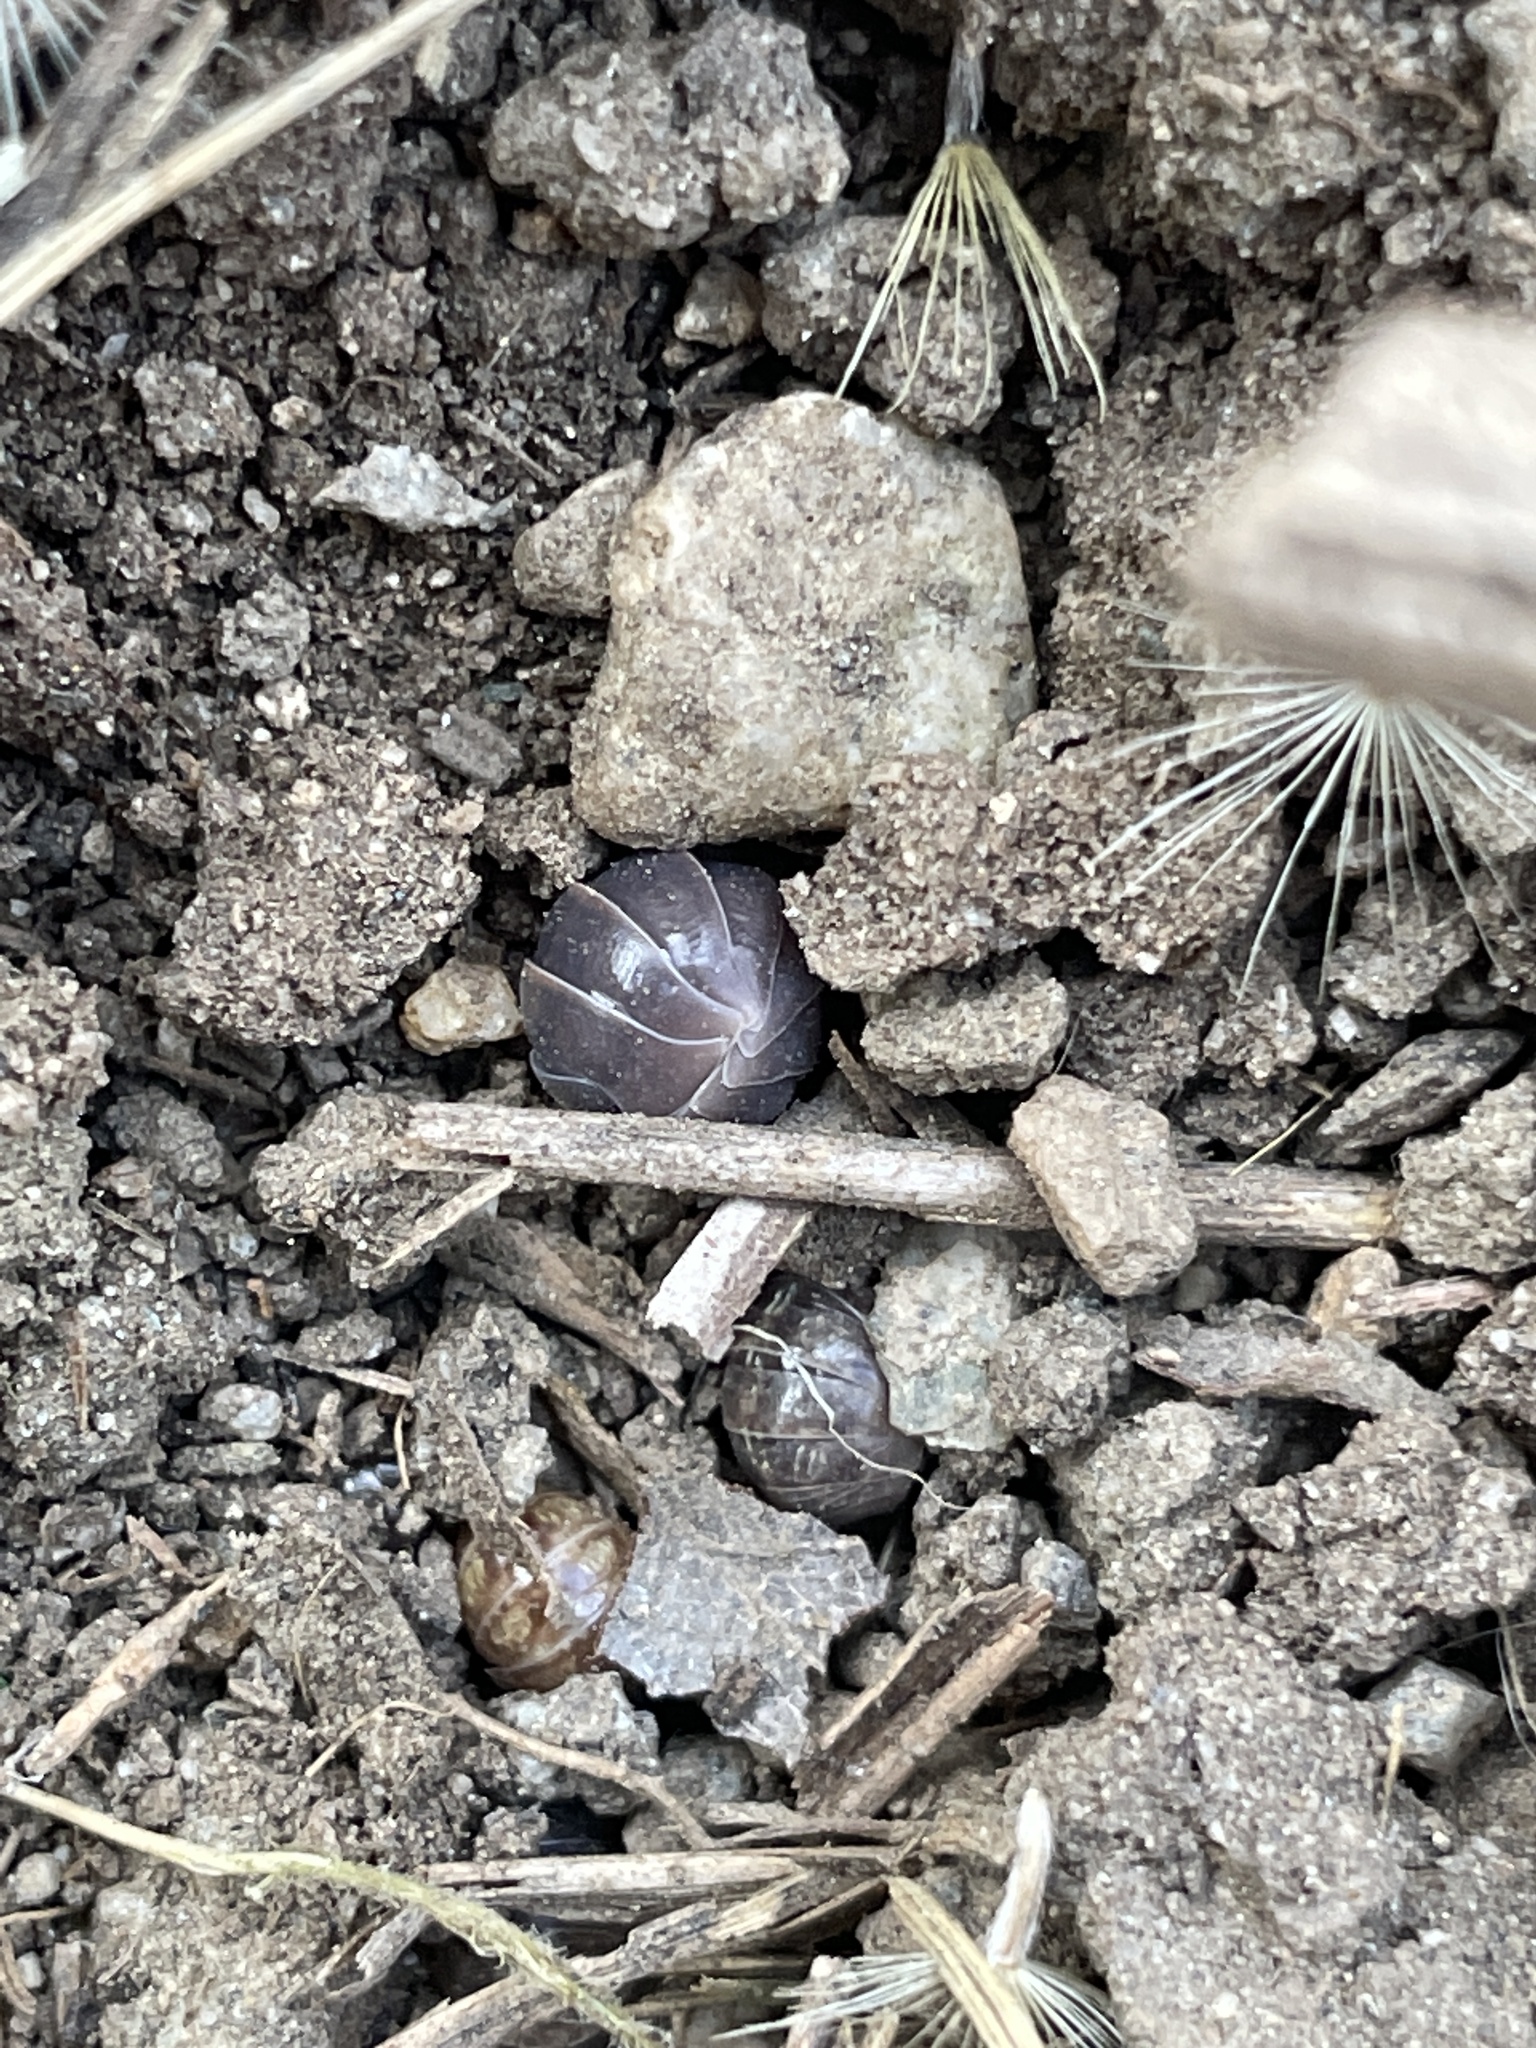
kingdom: Animalia
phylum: Arthropoda
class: Malacostraca
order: Isopoda
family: Armadillidiidae
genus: Armadillidium
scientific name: Armadillidium vulgare
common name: Common pill woodlouse
